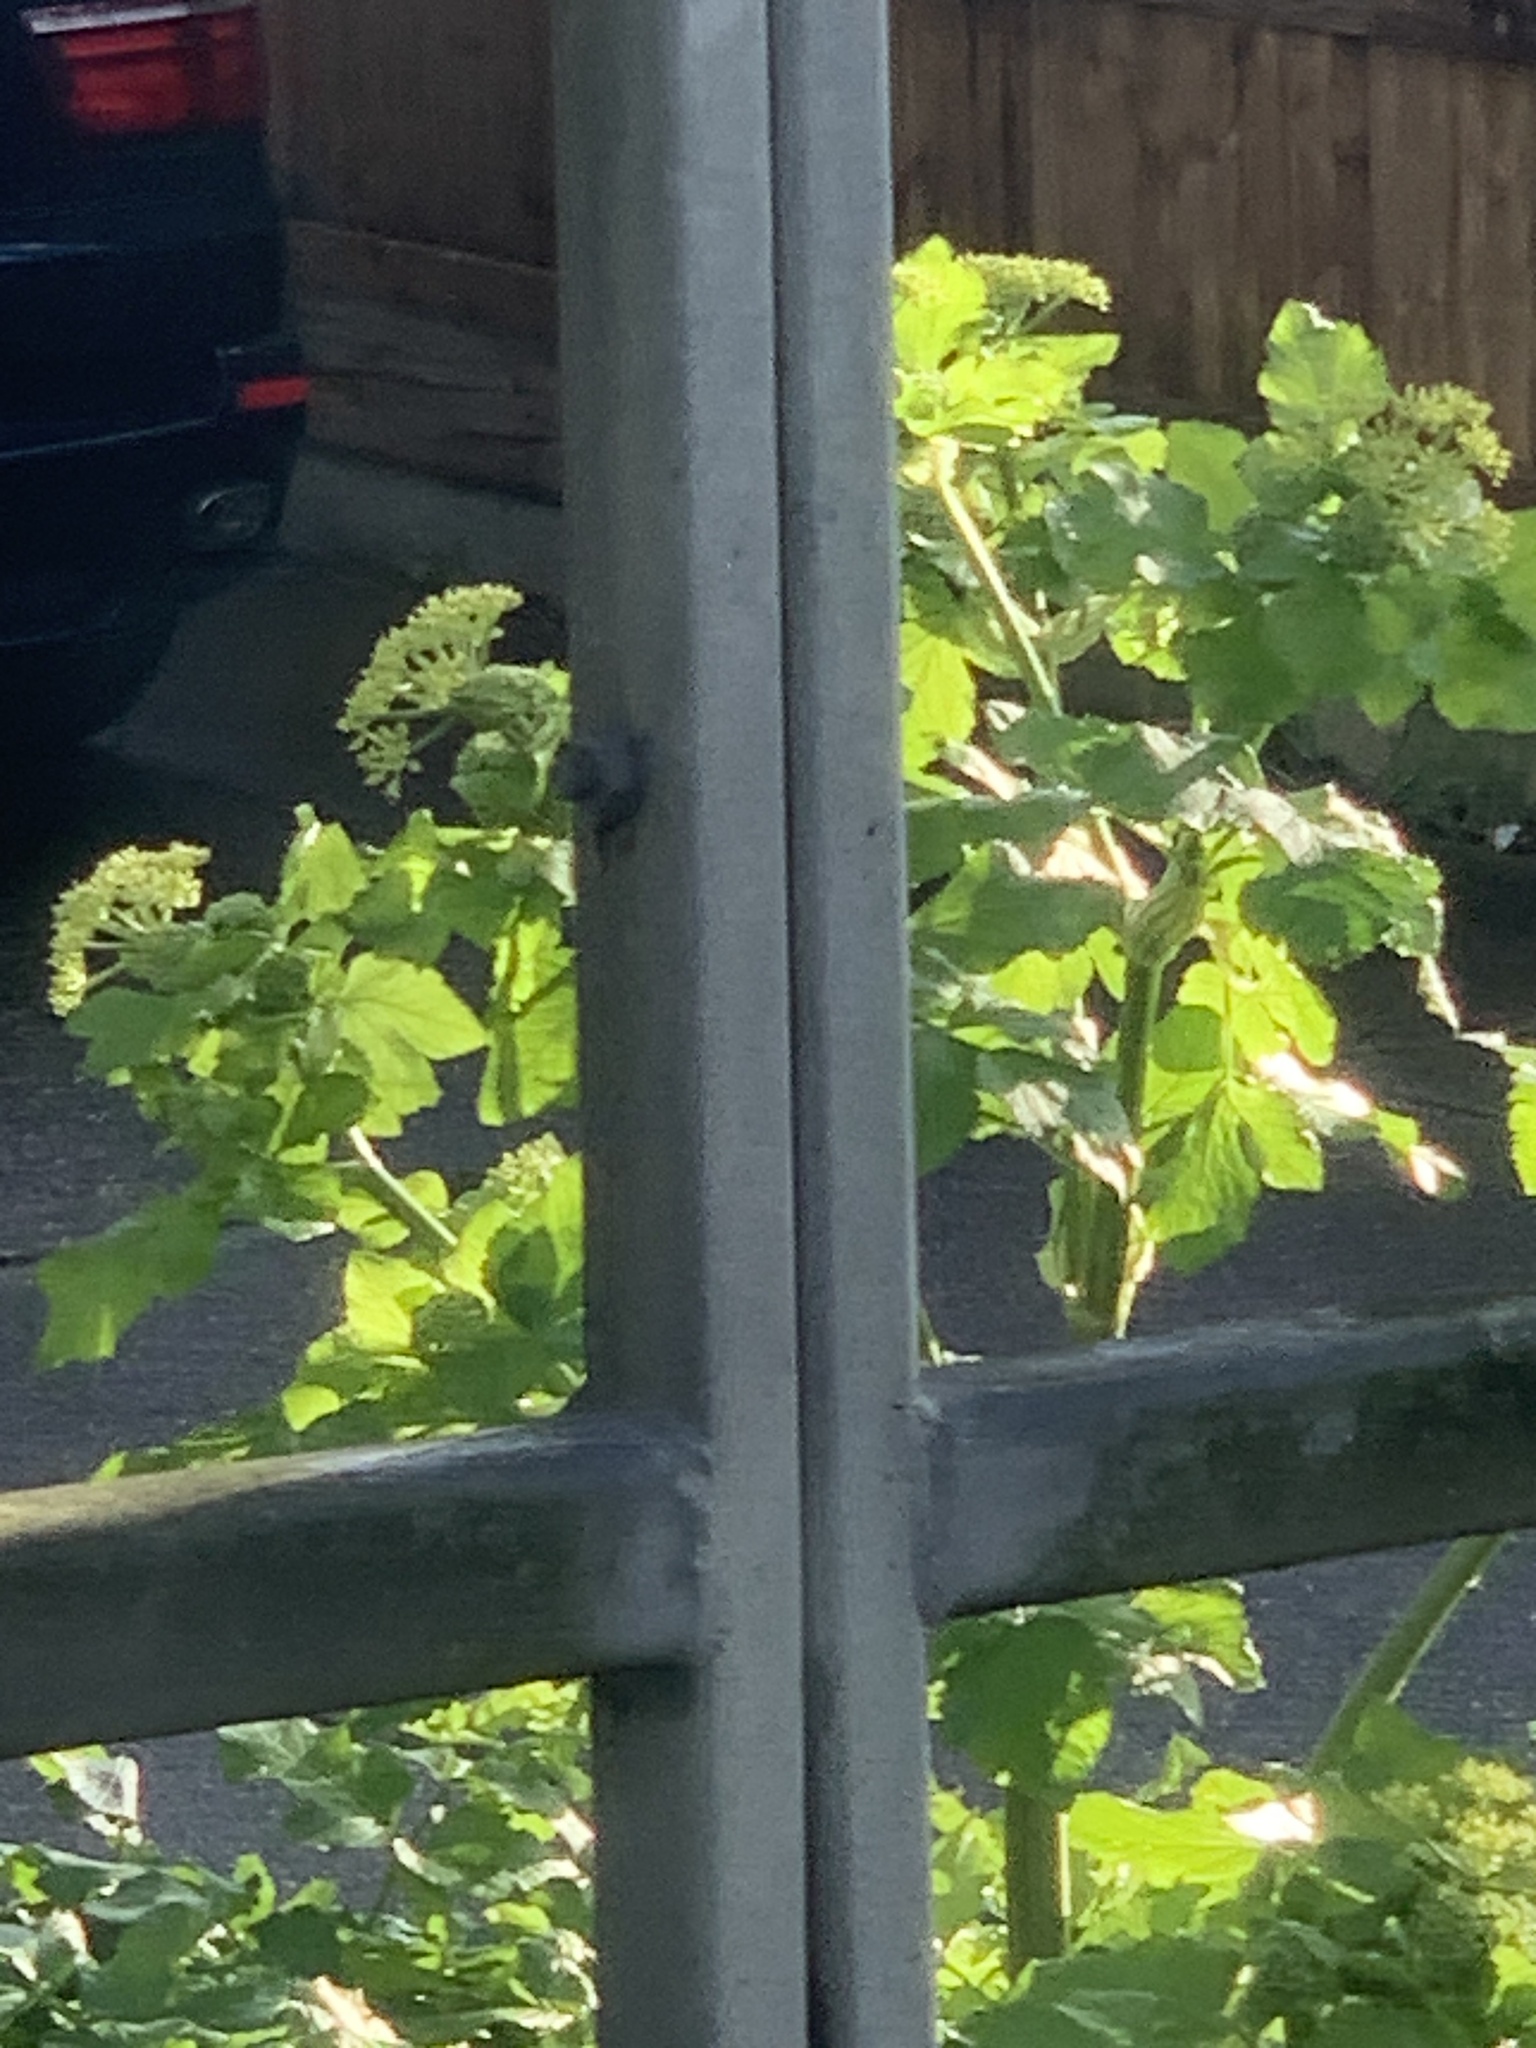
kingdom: Plantae
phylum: Tracheophyta
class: Magnoliopsida
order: Apiales
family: Apiaceae
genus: Smyrnium
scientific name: Smyrnium olusatrum
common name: Alexanders
